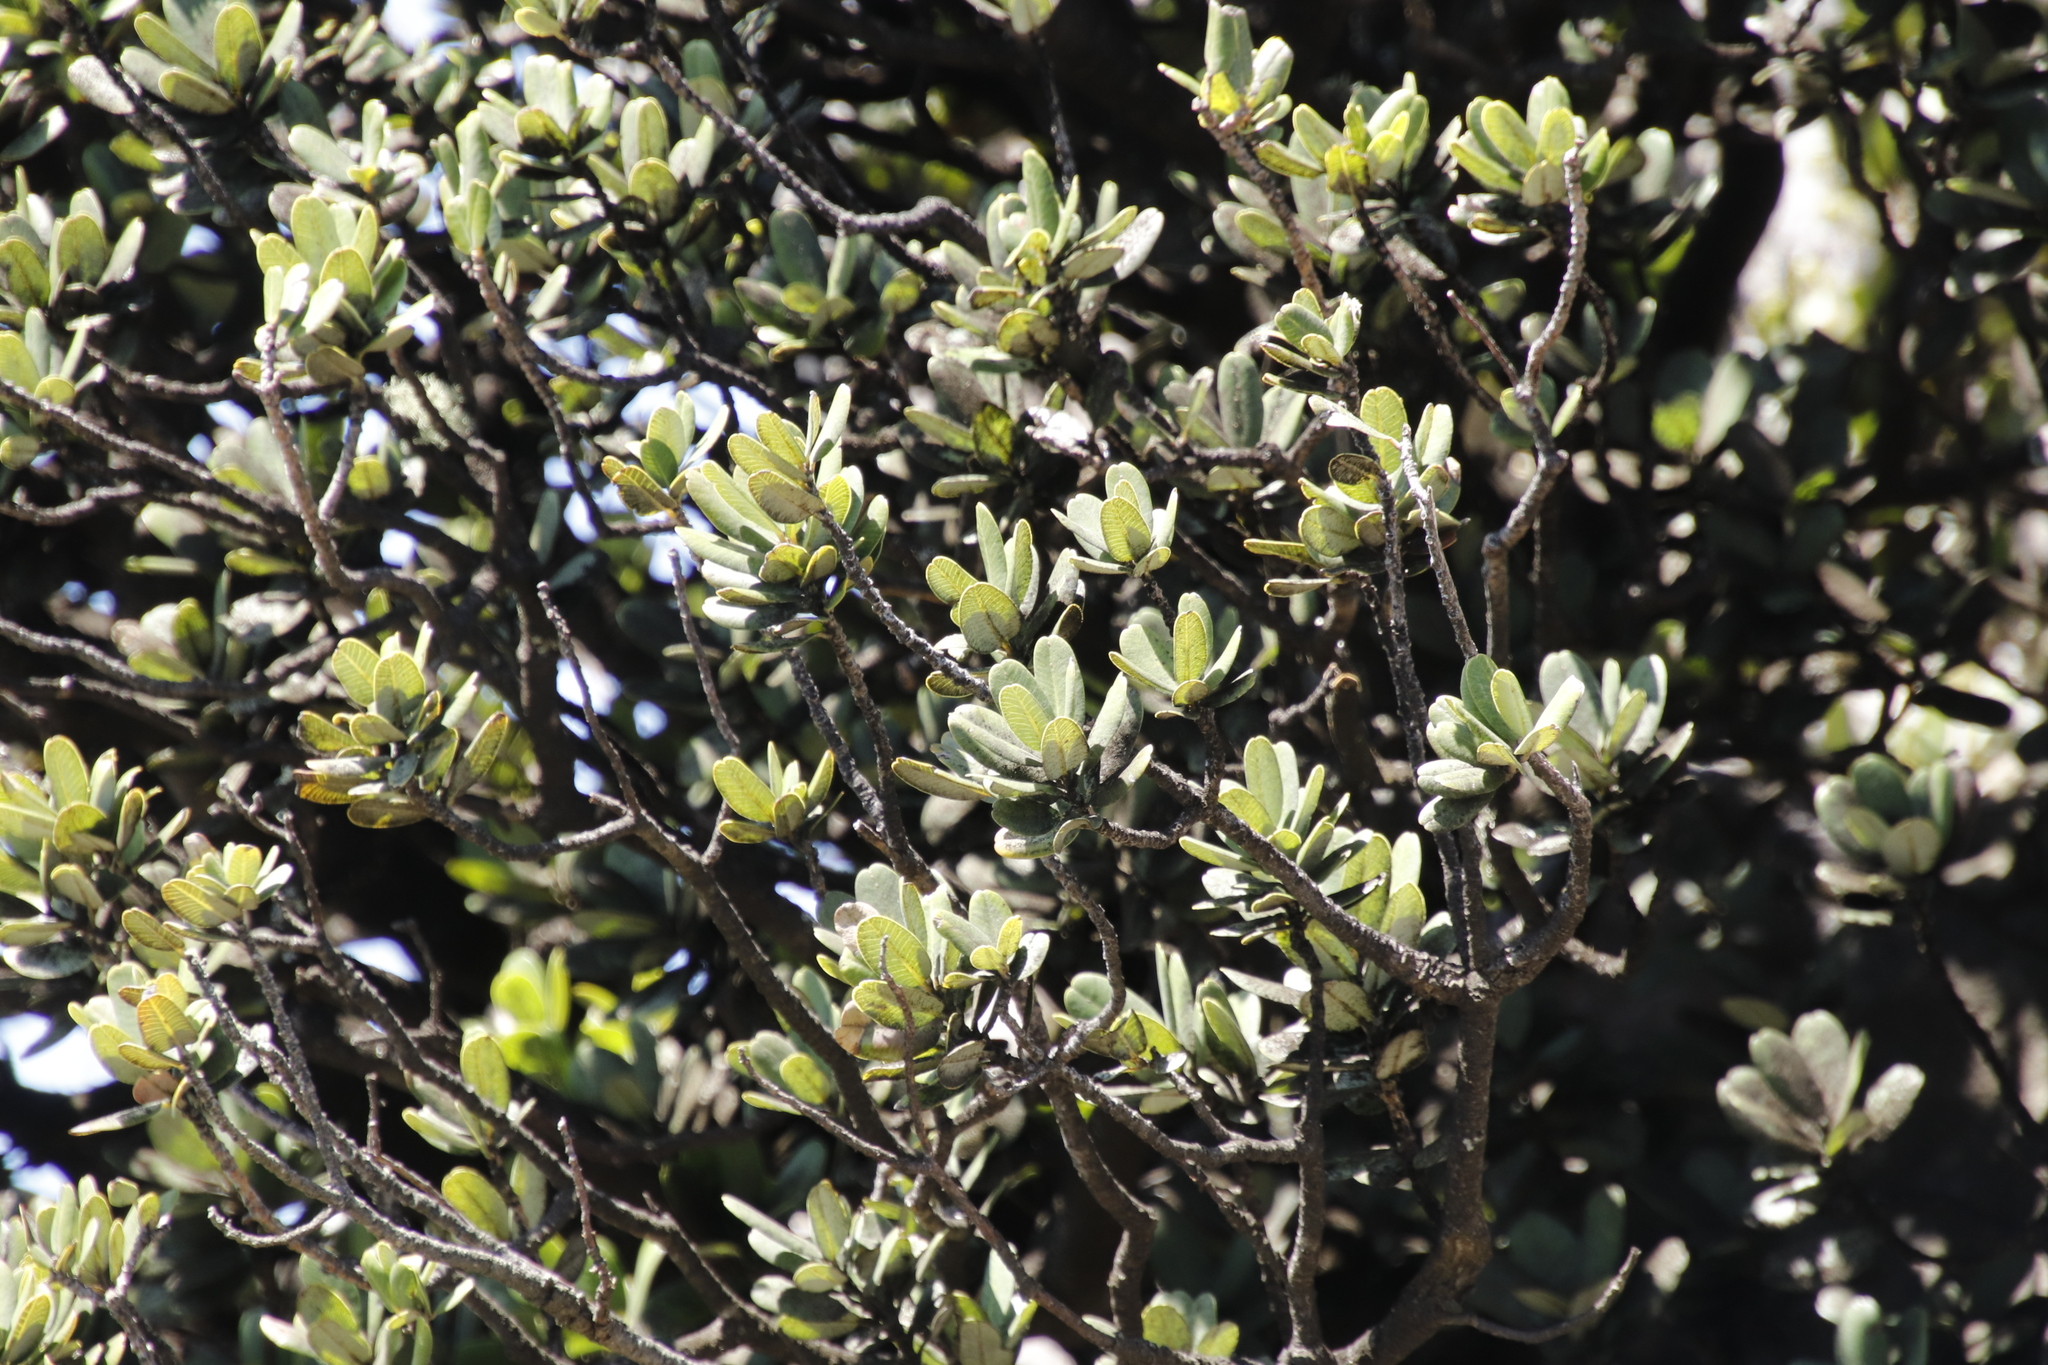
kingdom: Plantae
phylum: Tracheophyta
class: Magnoliopsida
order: Sapindales
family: Anacardiaceae
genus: Heeria
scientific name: Heeria argentea
